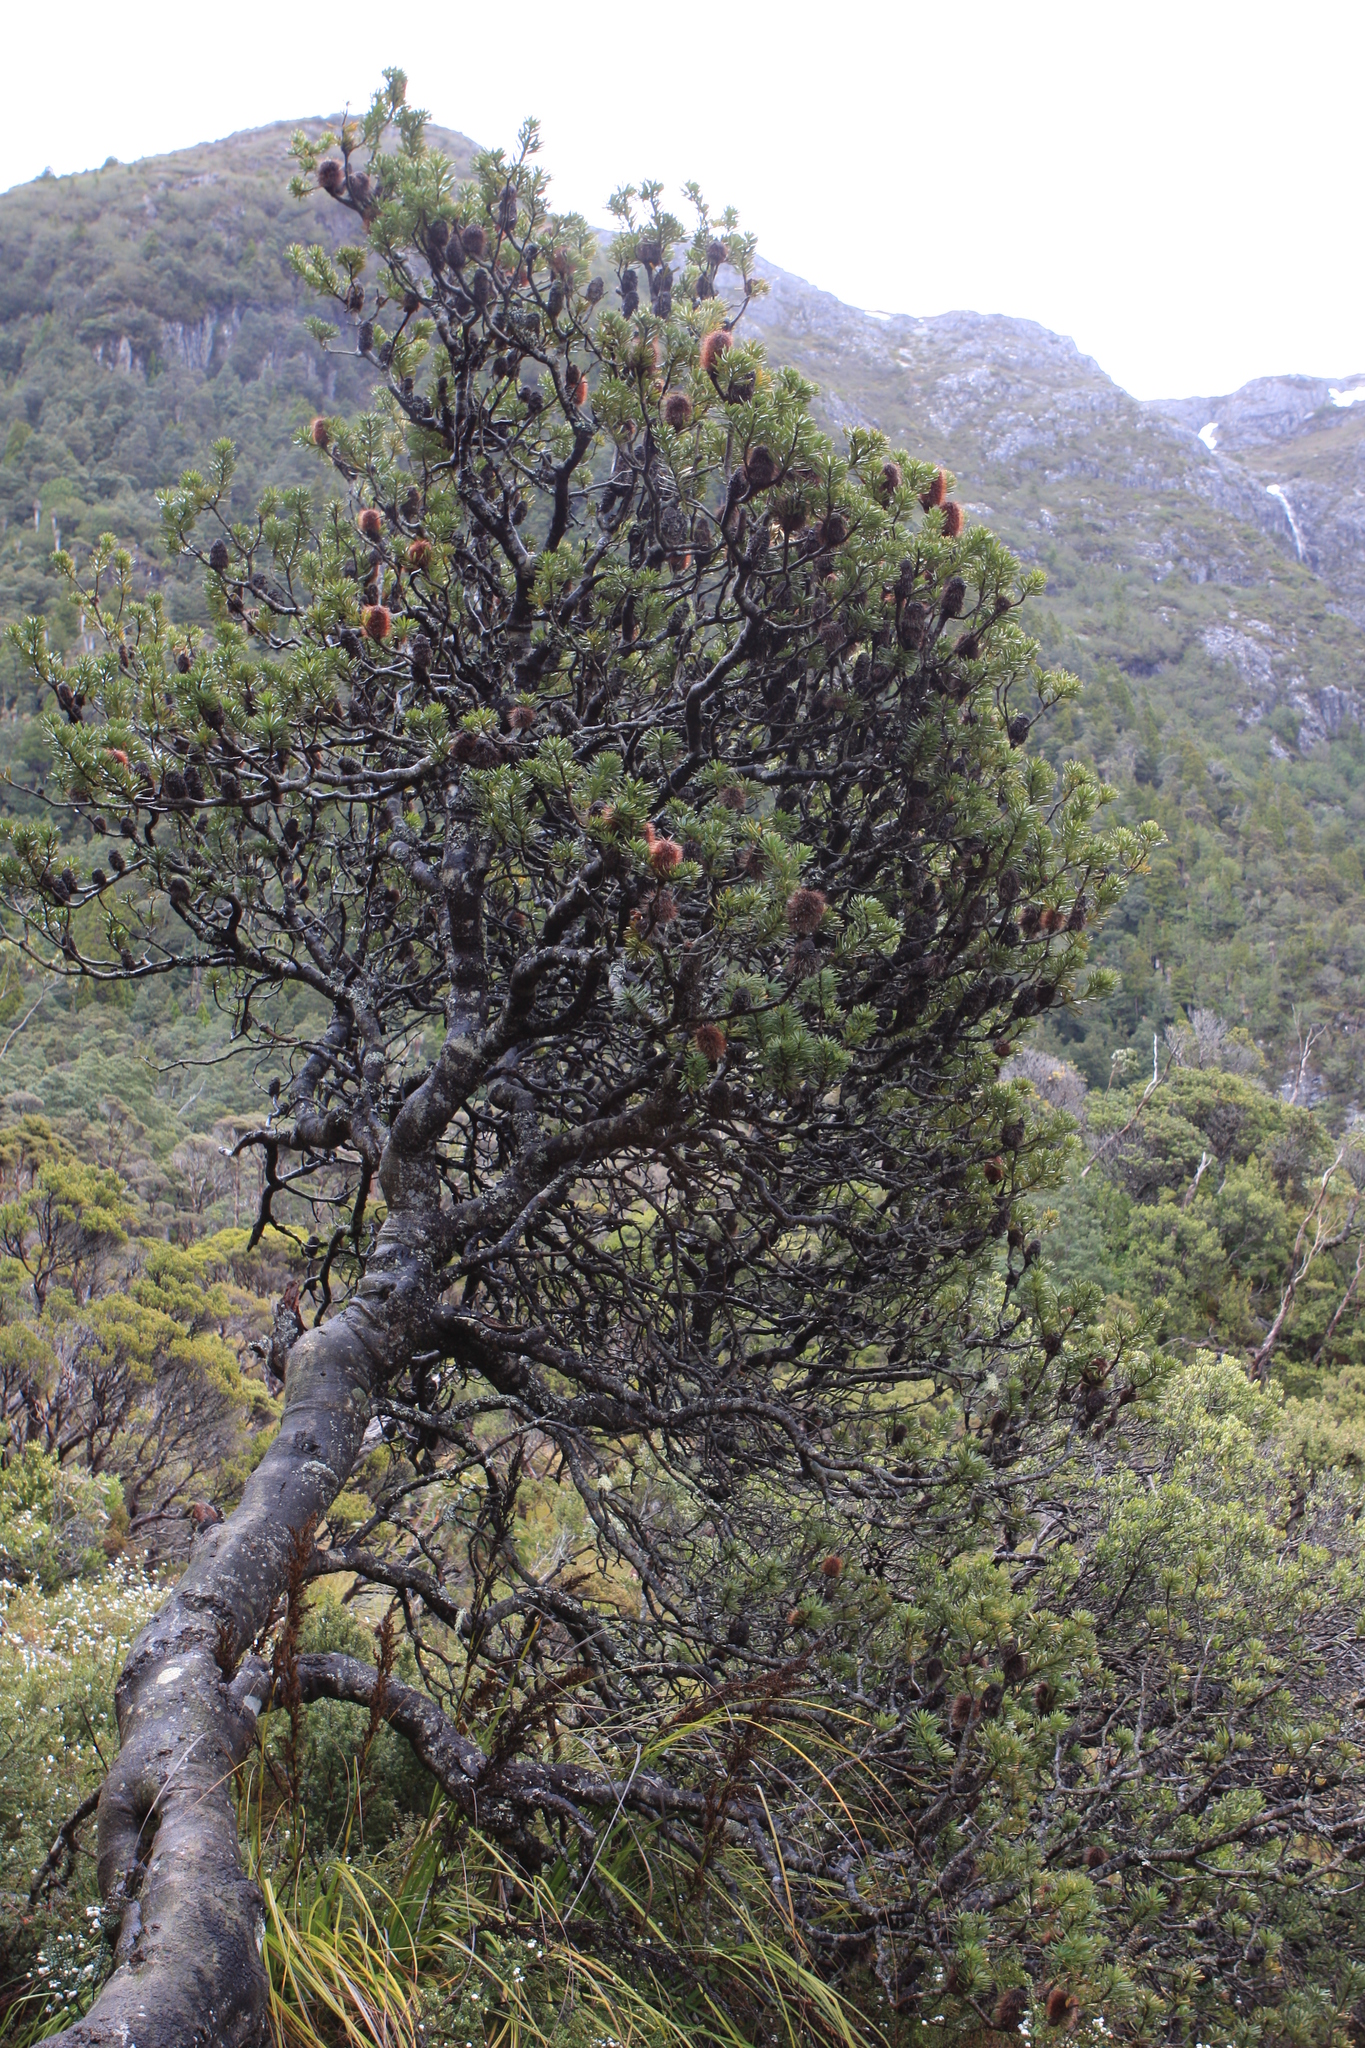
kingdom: Plantae
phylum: Tracheophyta
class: Magnoliopsida
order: Proteales
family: Proteaceae
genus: Banksia
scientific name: Banksia marginata
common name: Silver banksia
